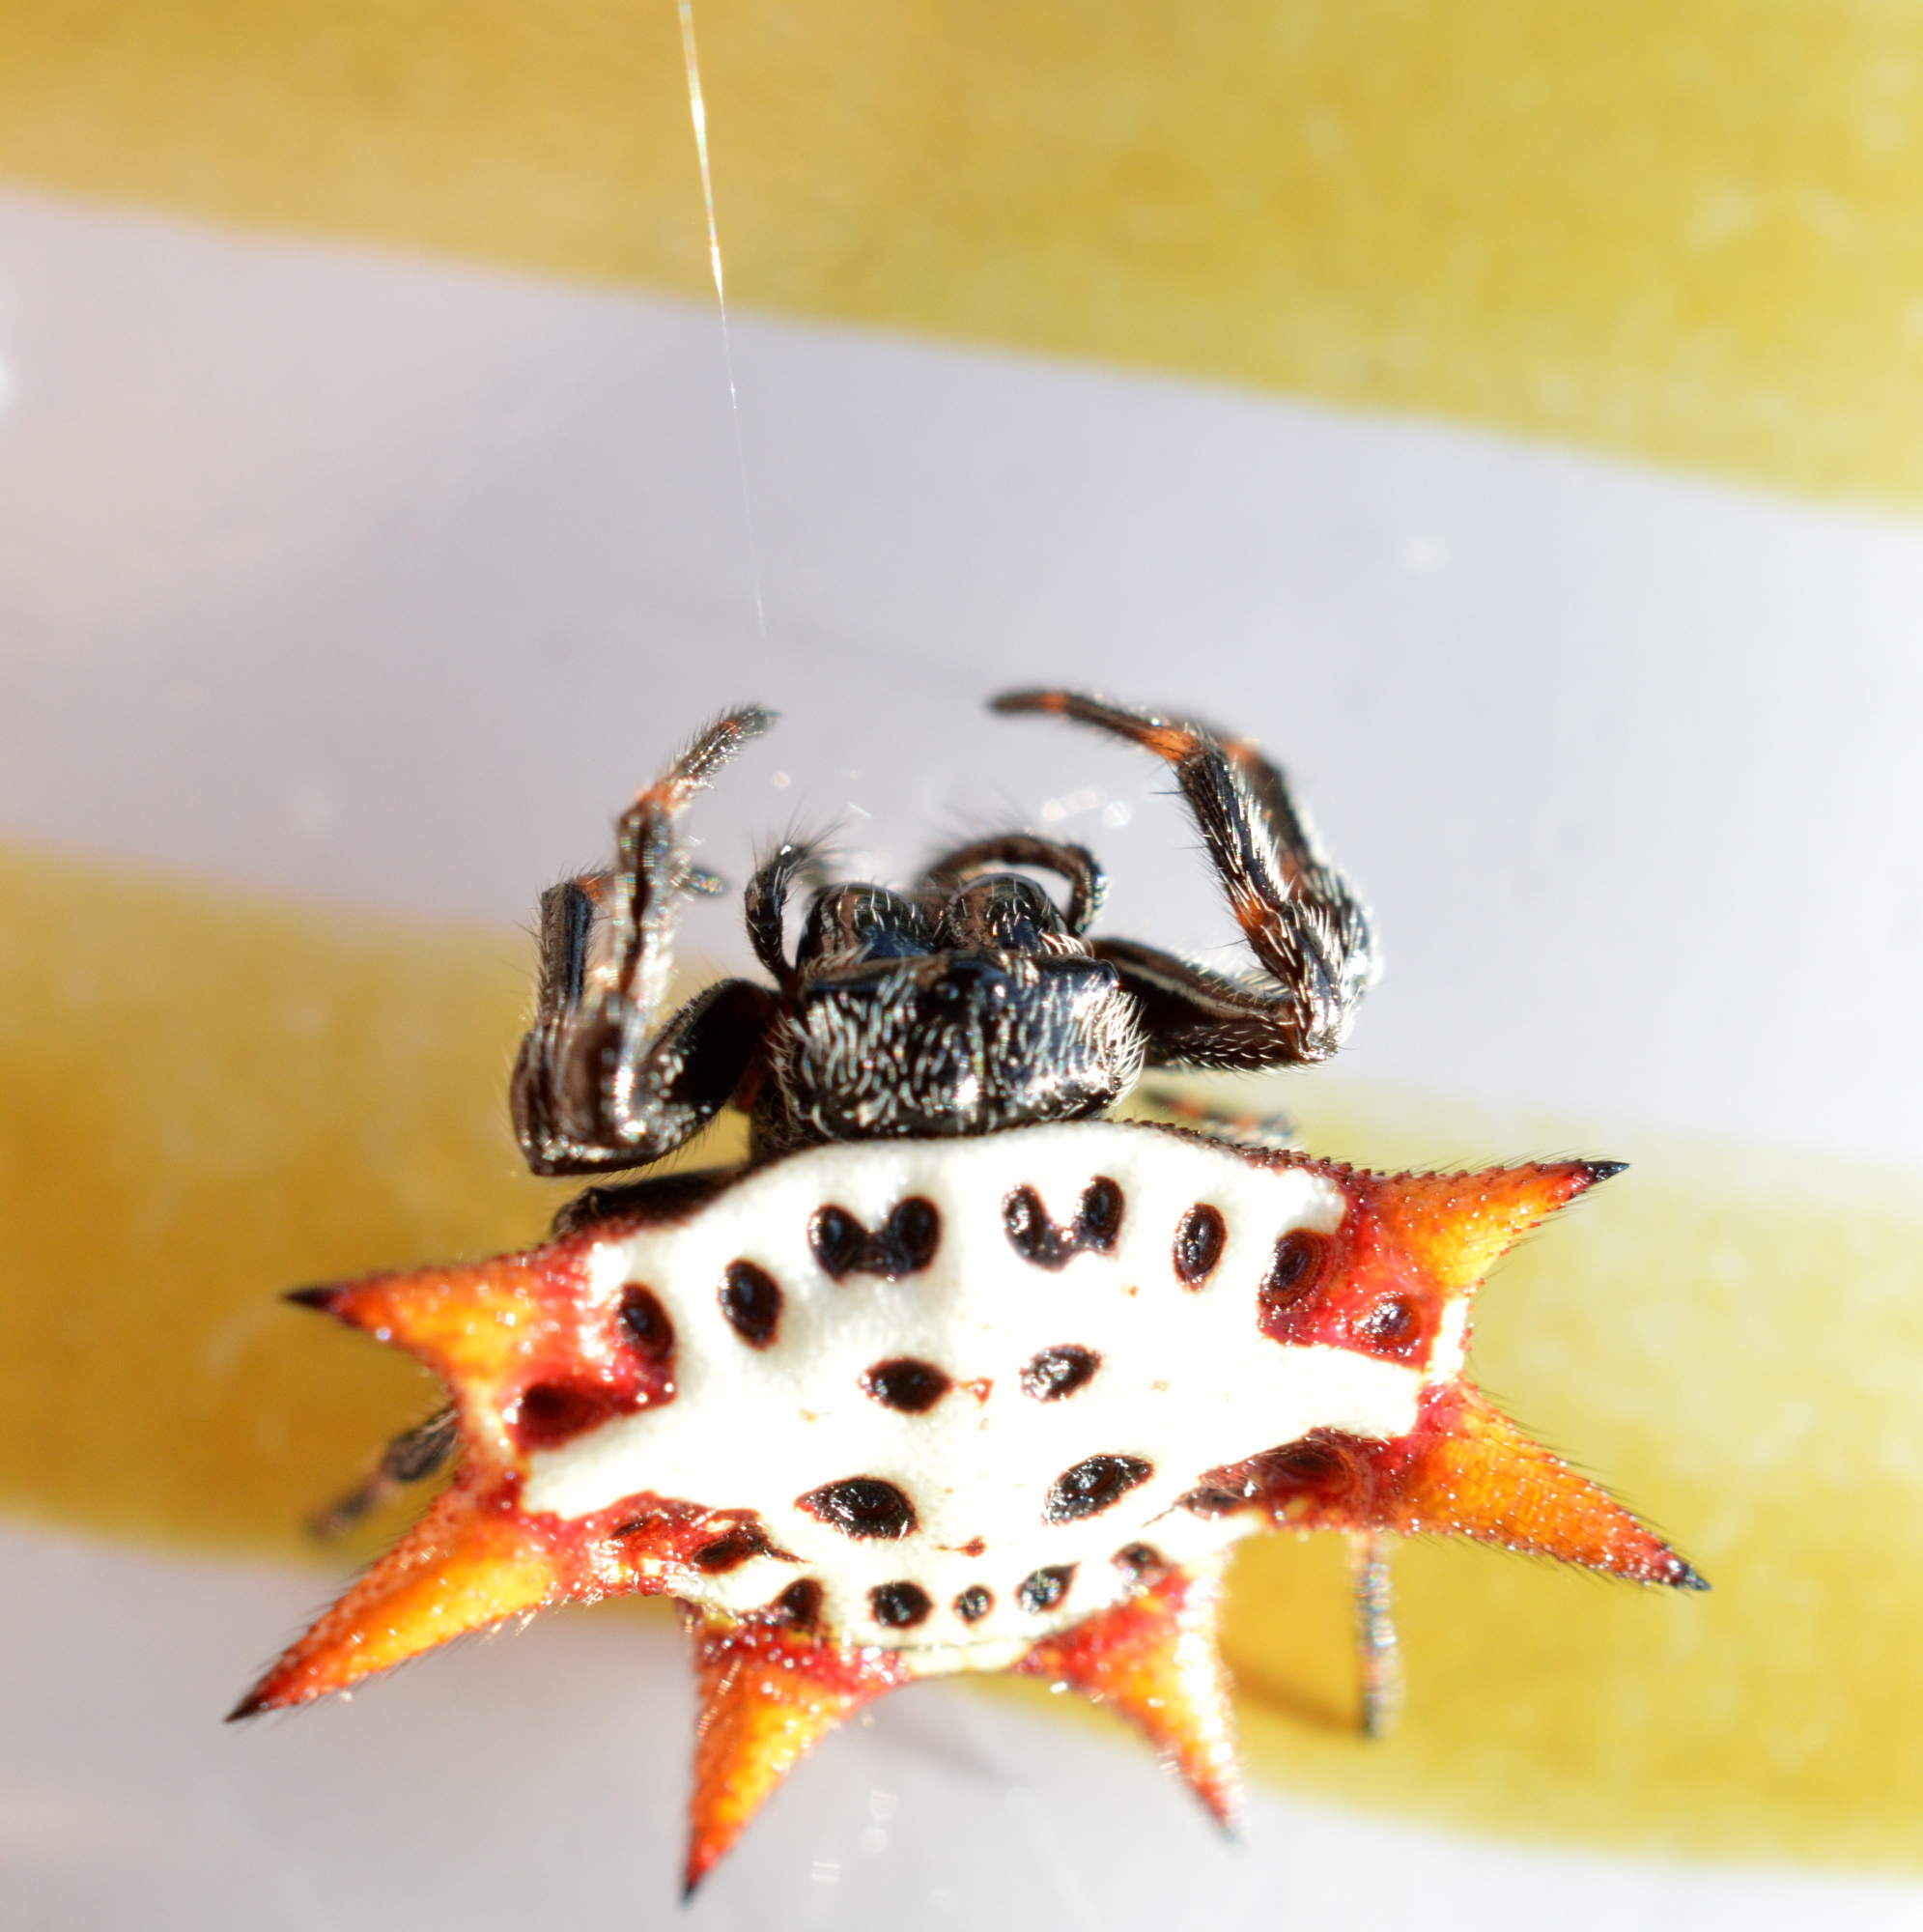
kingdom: Animalia
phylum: Arthropoda
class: Arachnida
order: Araneae
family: Araneidae
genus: Gasteracantha
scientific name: Gasteracantha cancriformis
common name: Orb weavers
